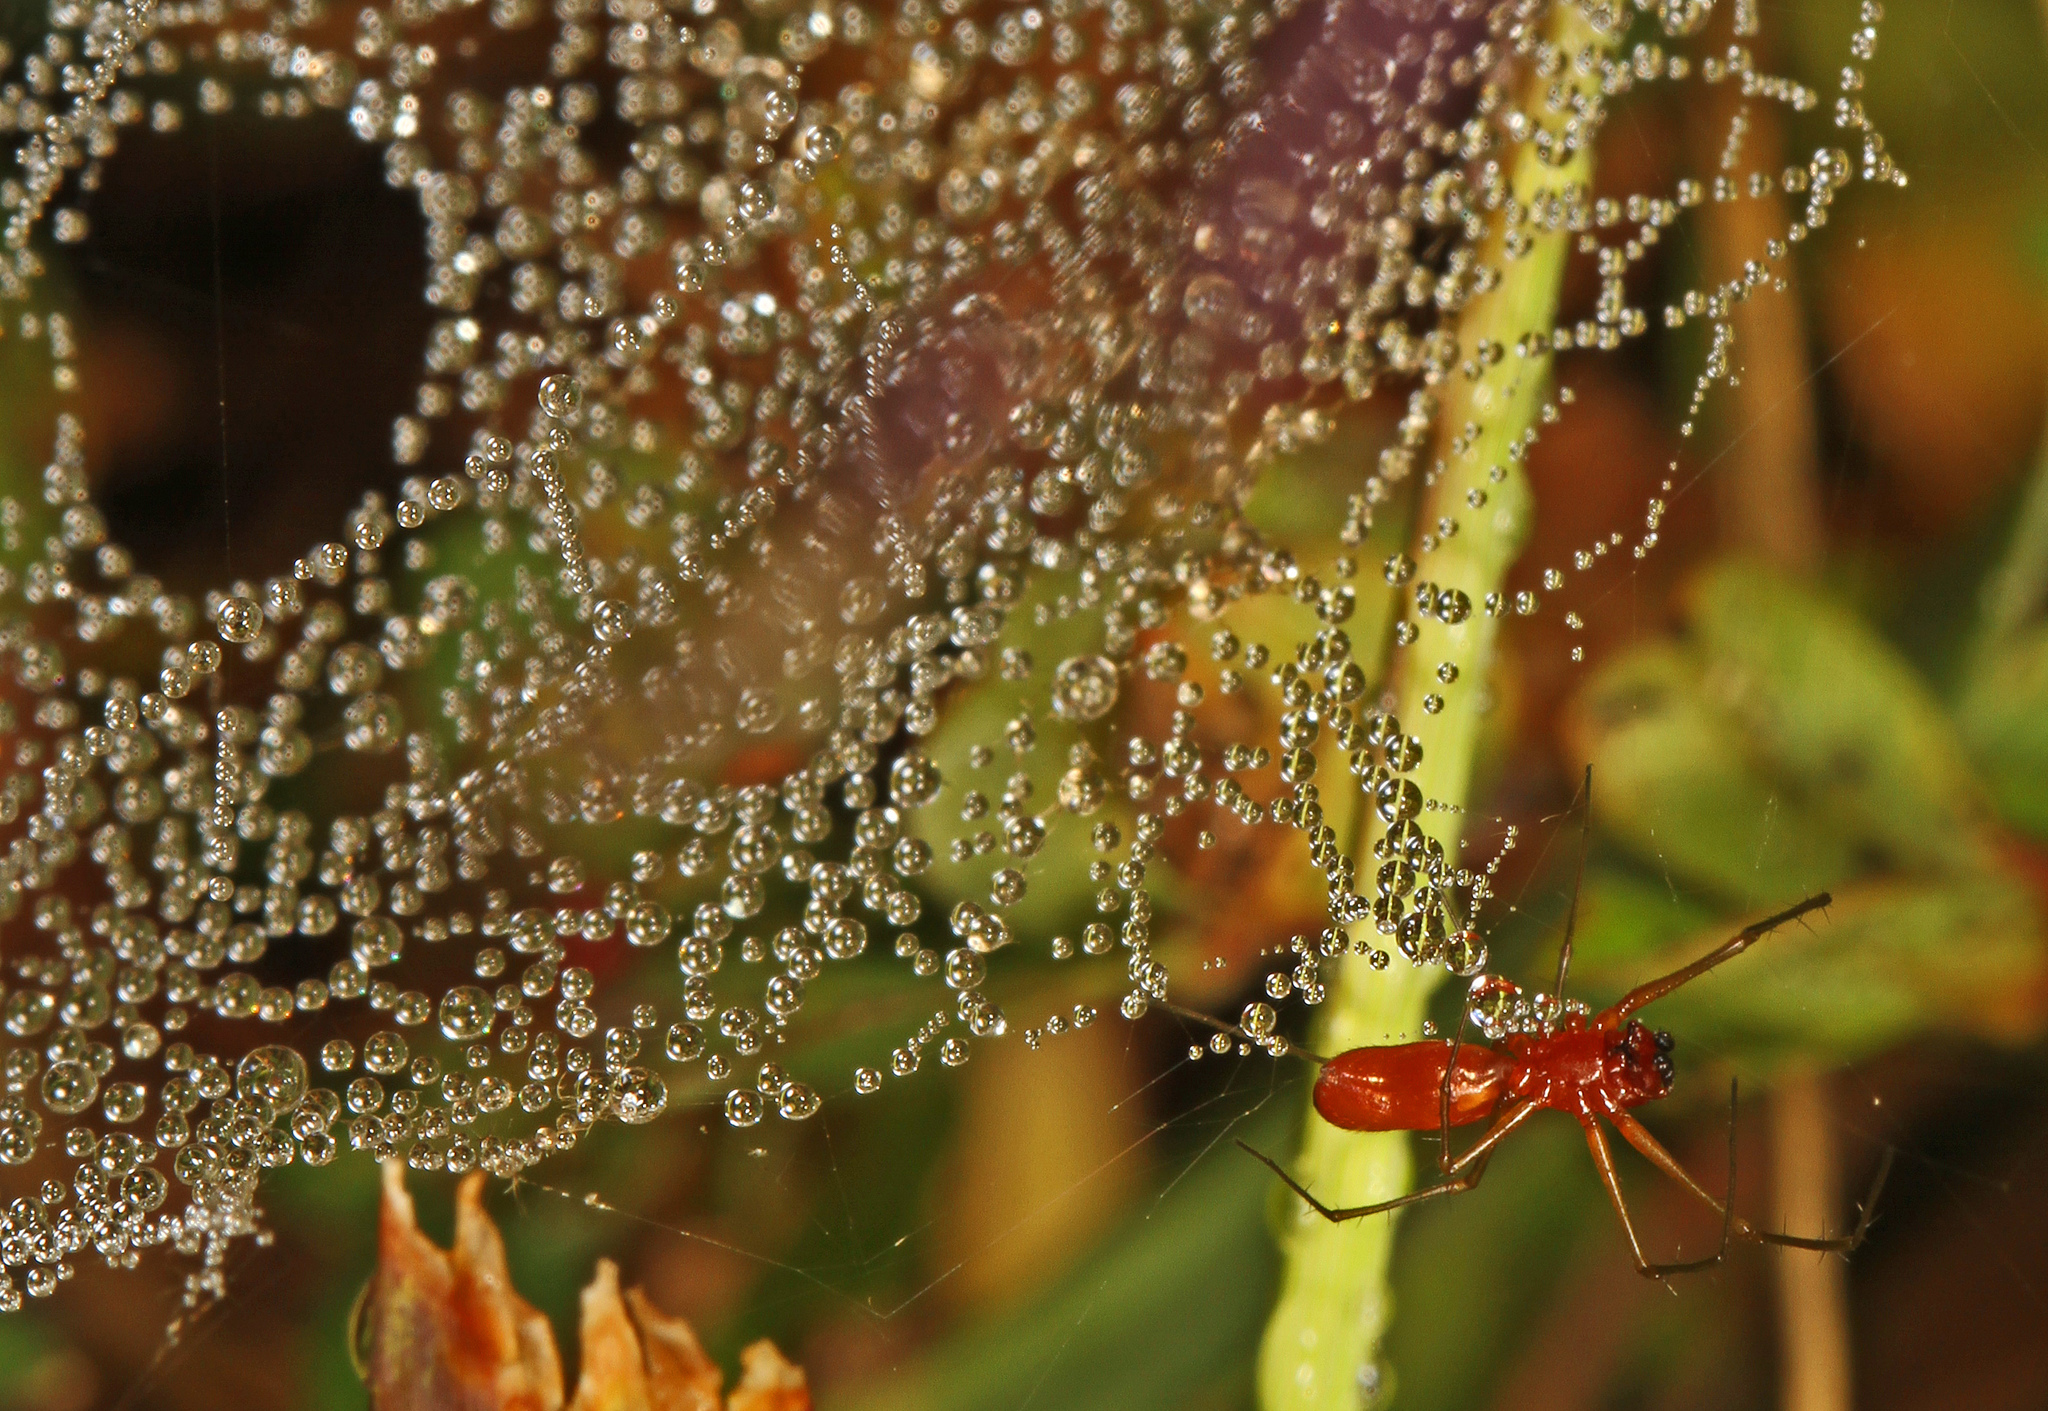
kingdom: Animalia
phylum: Arthropoda
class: Arachnida
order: Araneae
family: Linyphiidae
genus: Florinda
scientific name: Florinda coccinea
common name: Black-tailed red sheetweaver
